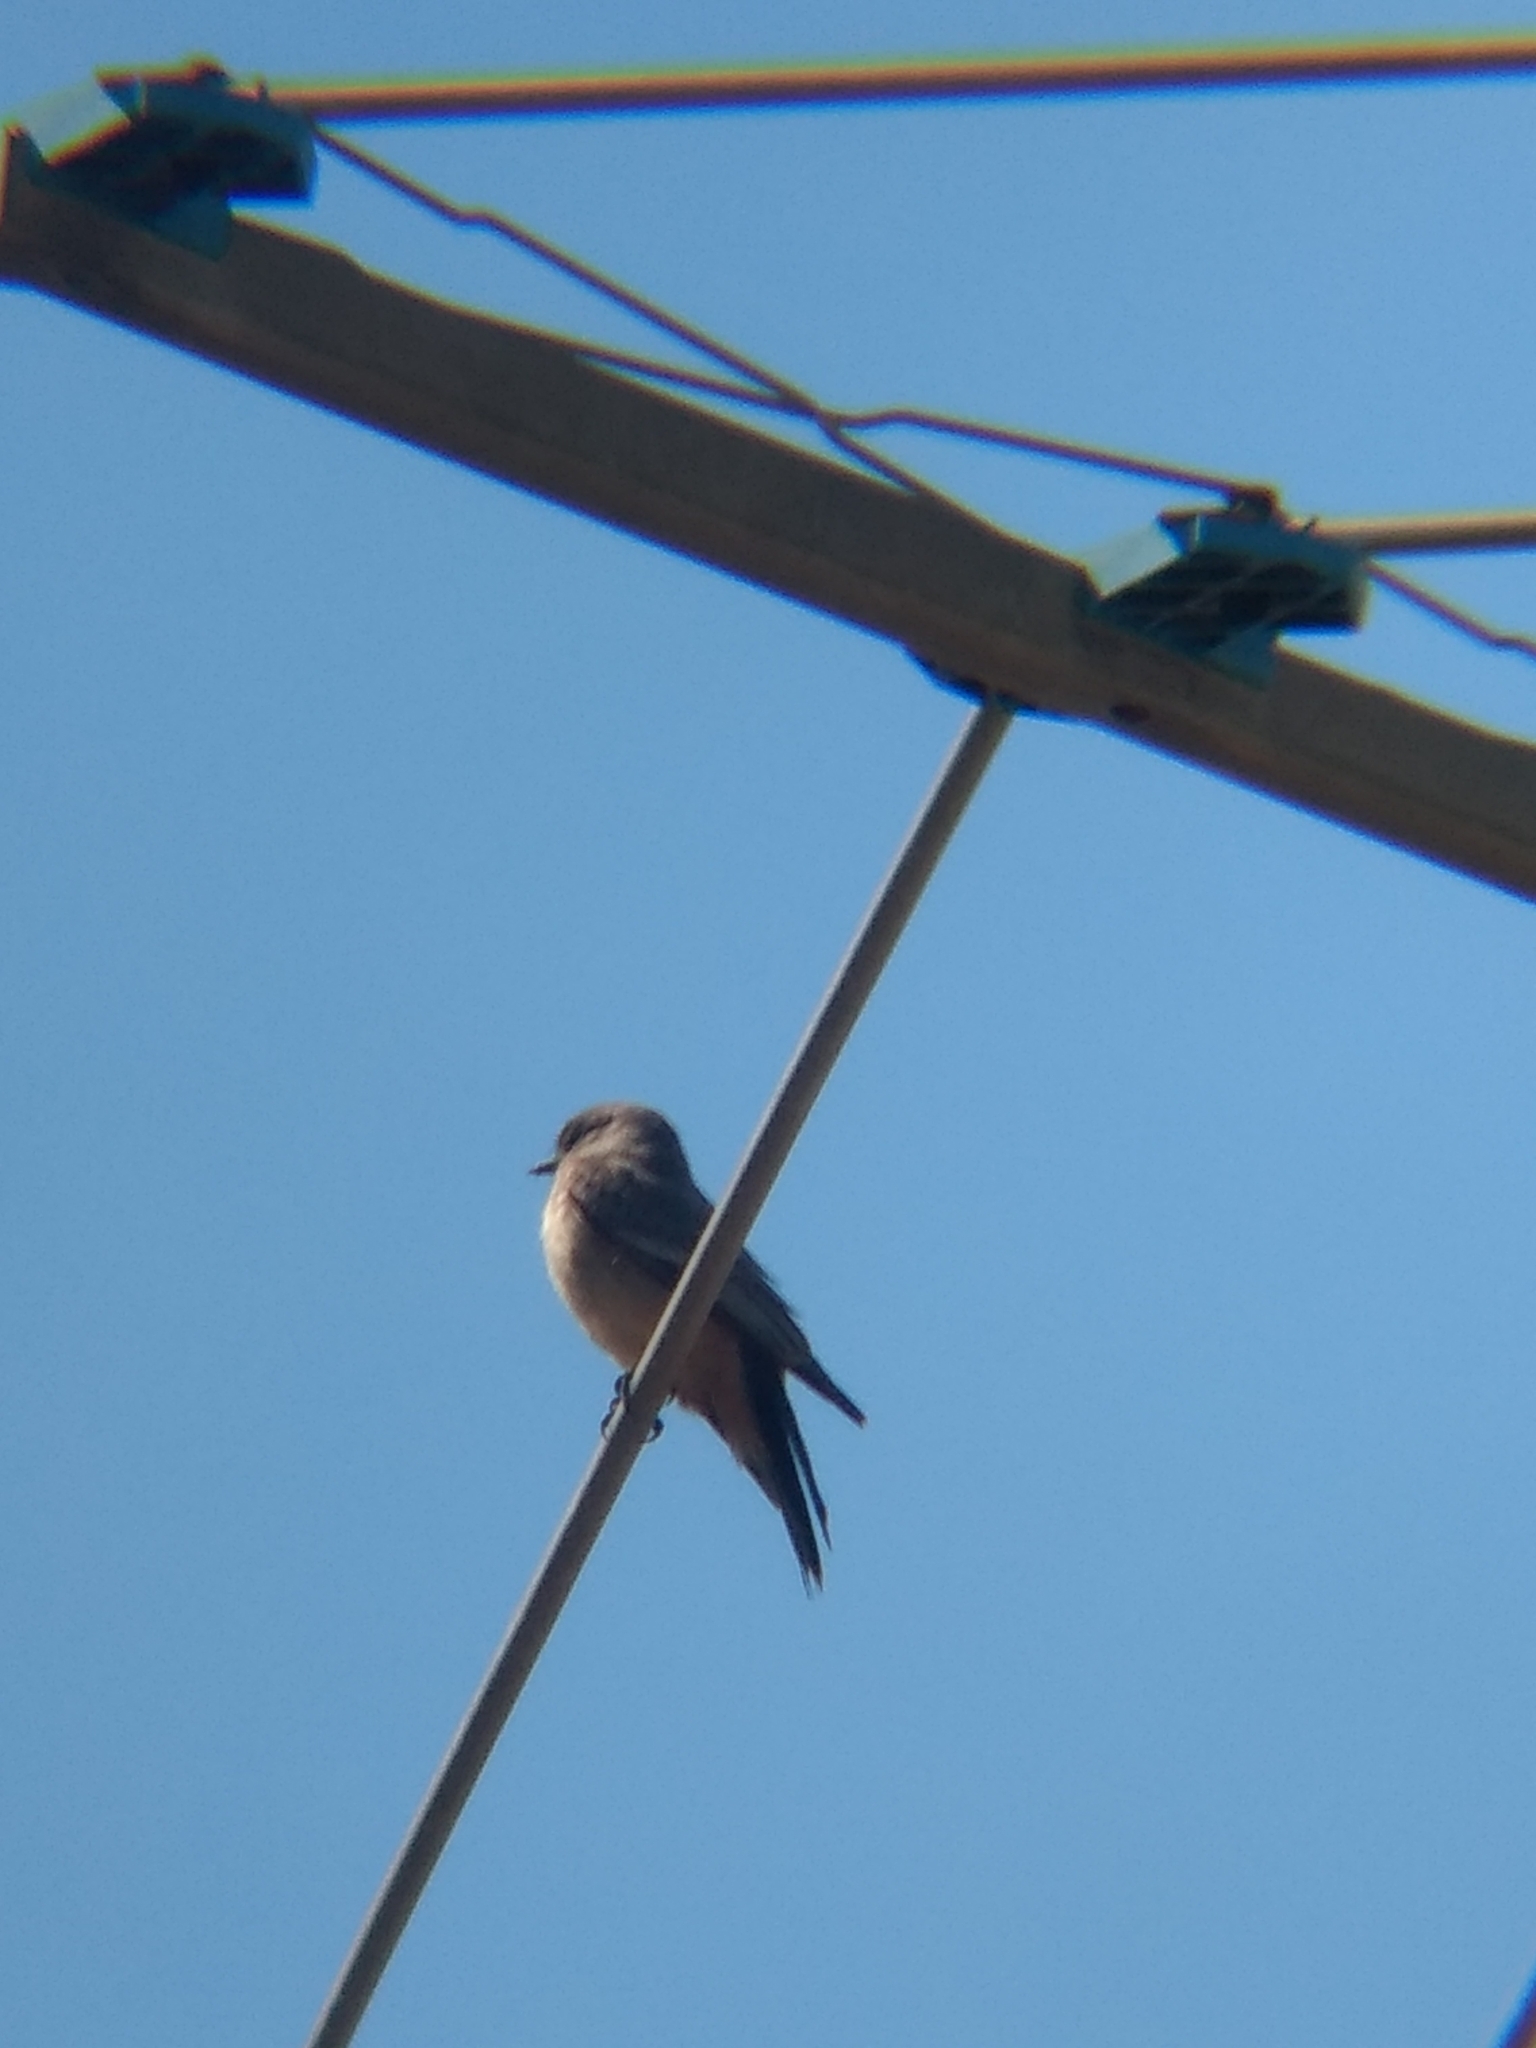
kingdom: Animalia
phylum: Chordata
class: Aves
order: Passeriformes
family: Tyrannidae
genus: Sayornis
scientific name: Sayornis saya
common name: Say's phoebe
